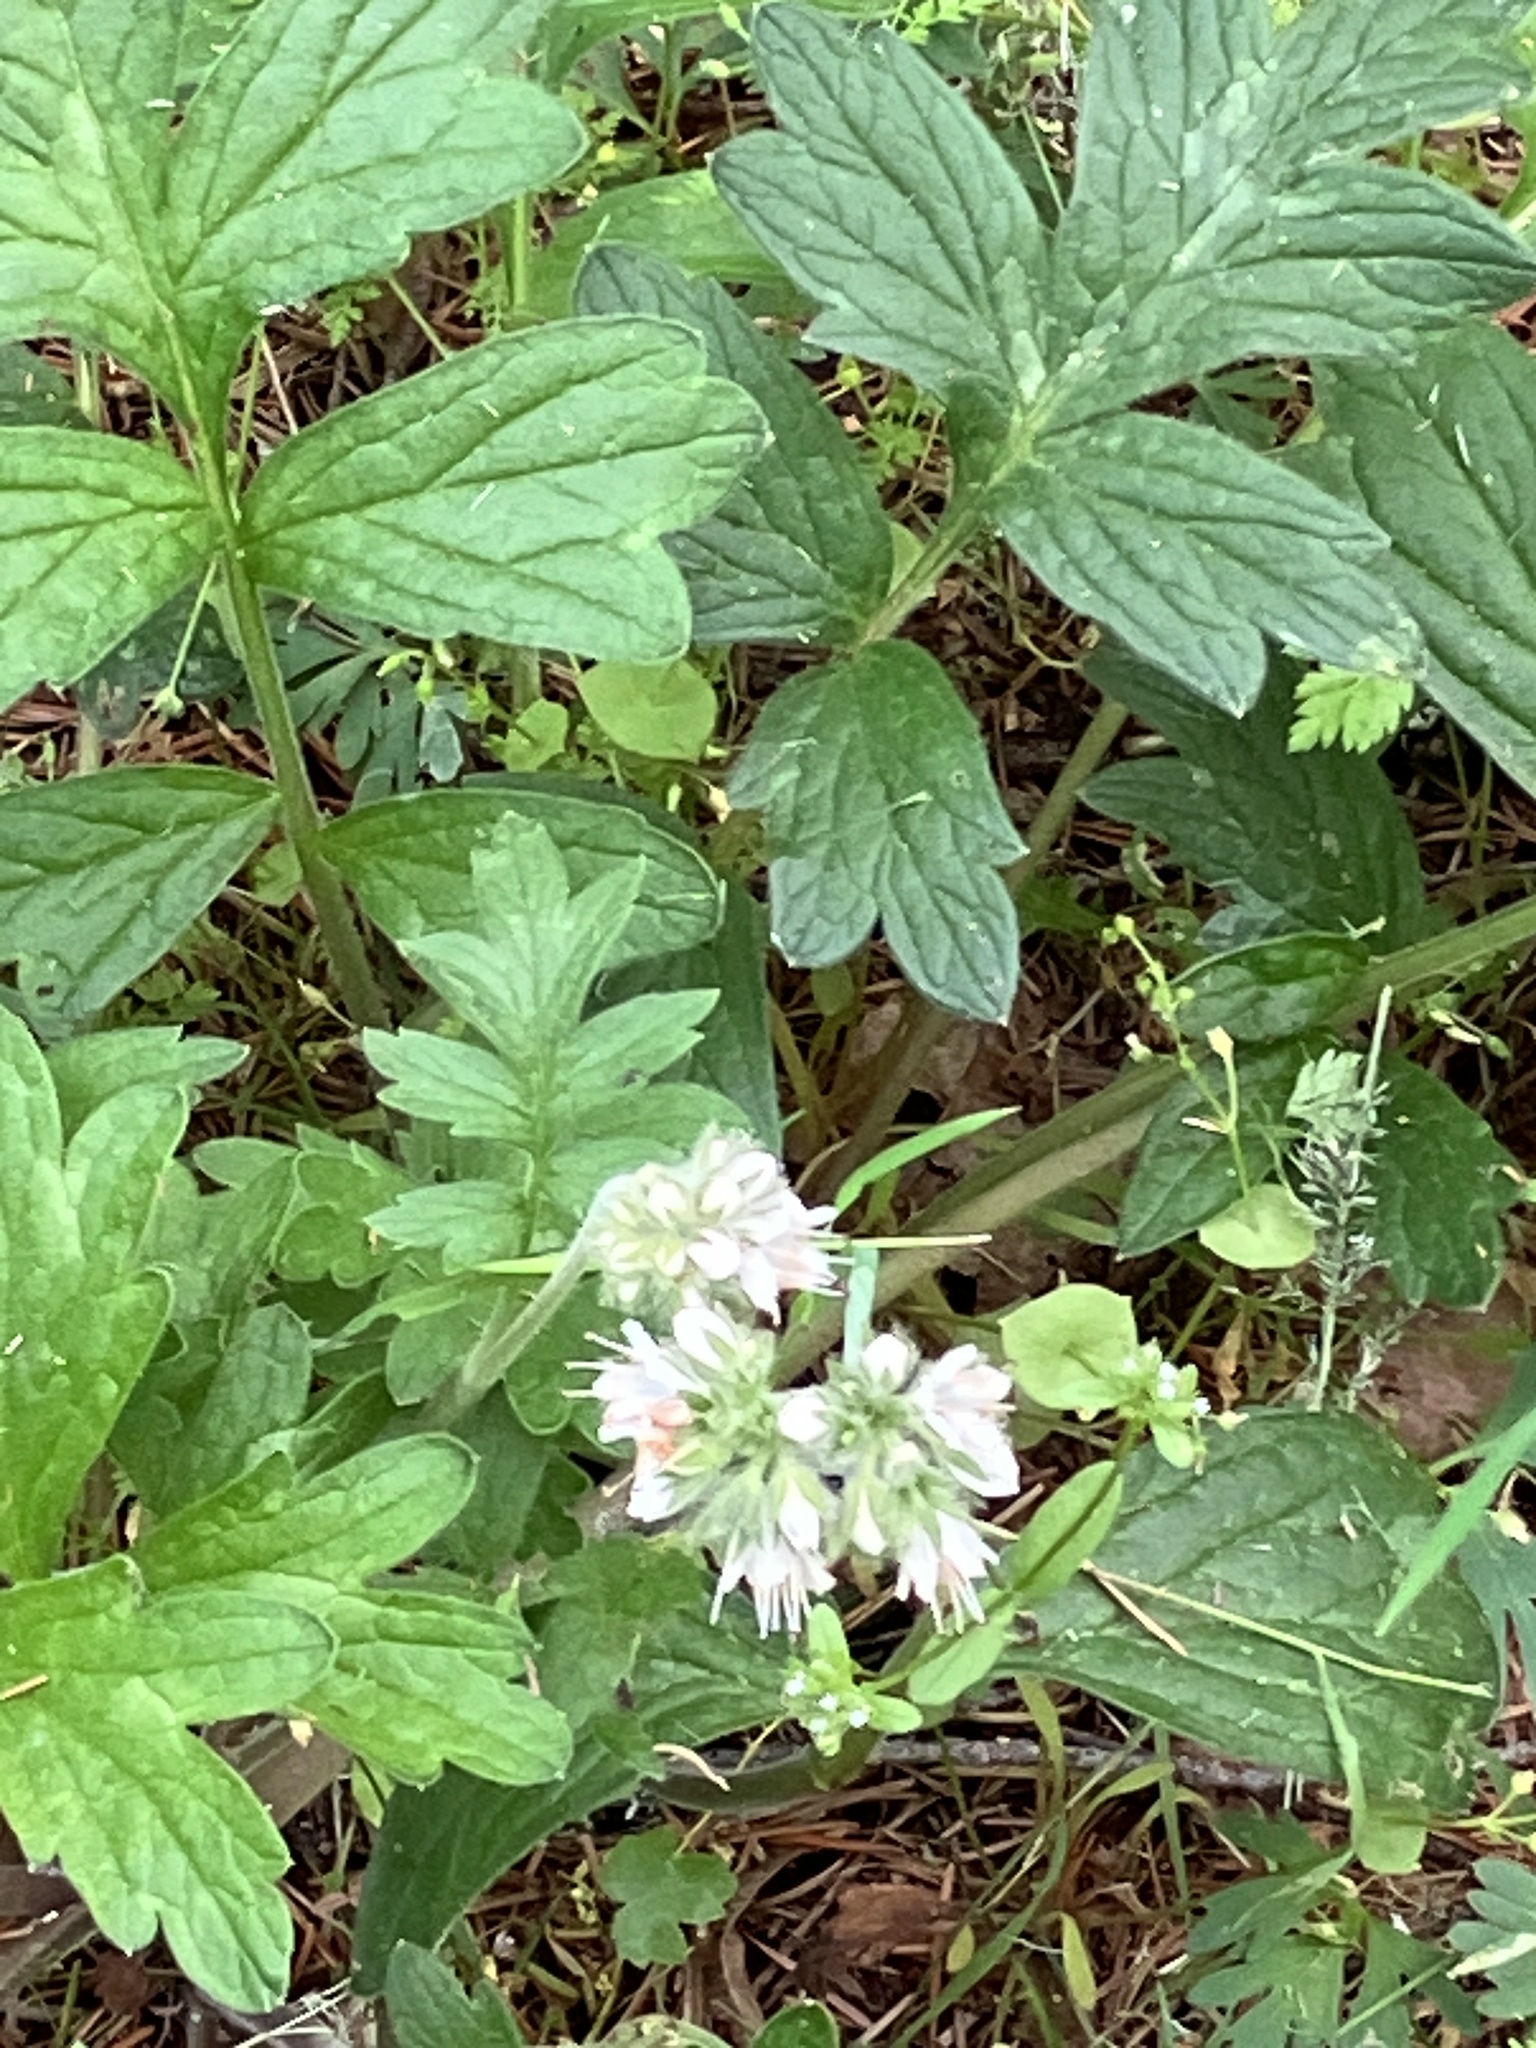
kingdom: Plantae
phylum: Tracheophyta
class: Magnoliopsida
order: Boraginales
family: Hydrophyllaceae
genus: Hydrophyllum
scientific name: Hydrophyllum occidentale
